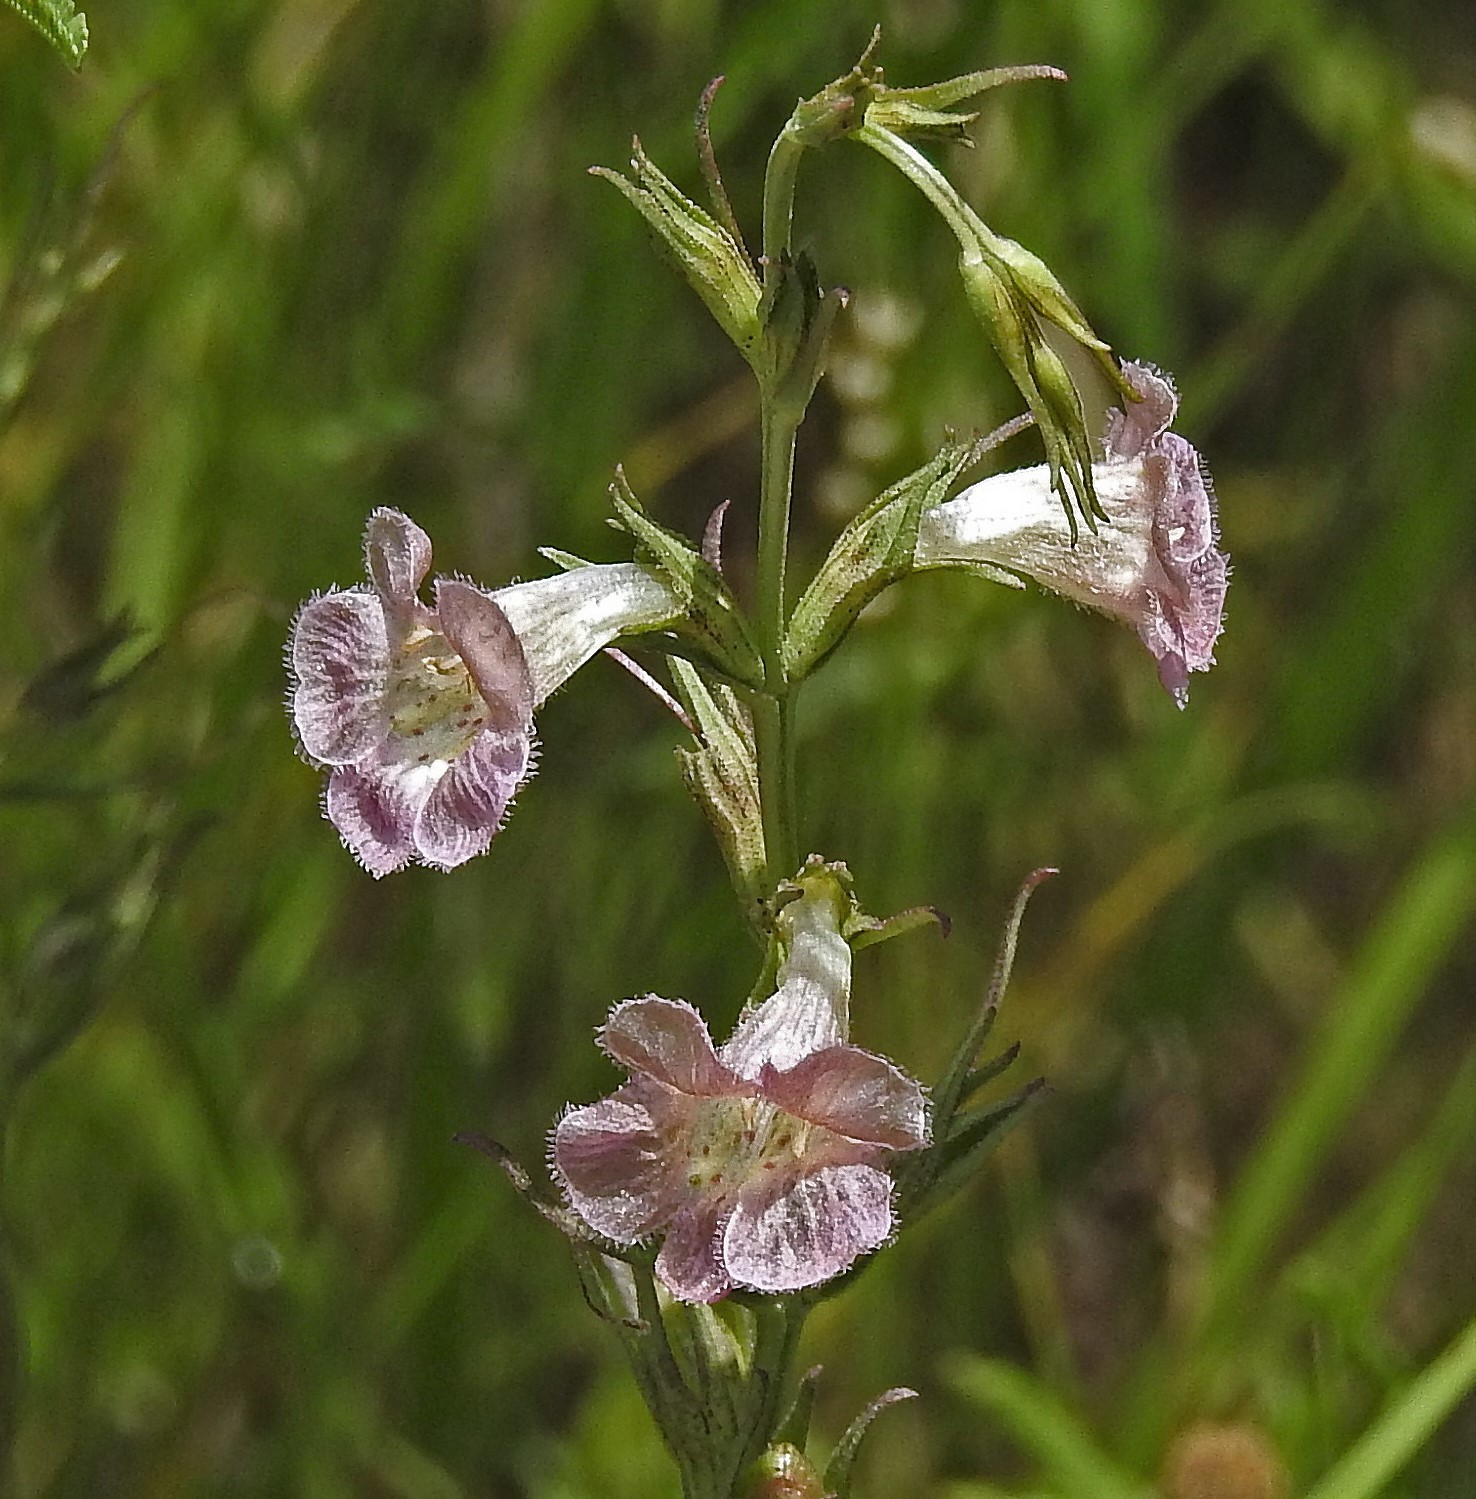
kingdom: Plantae
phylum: Tracheophyta
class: Magnoliopsida
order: Lamiales
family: Orobanchaceae
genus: Agalinis
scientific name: Agalinis communis
